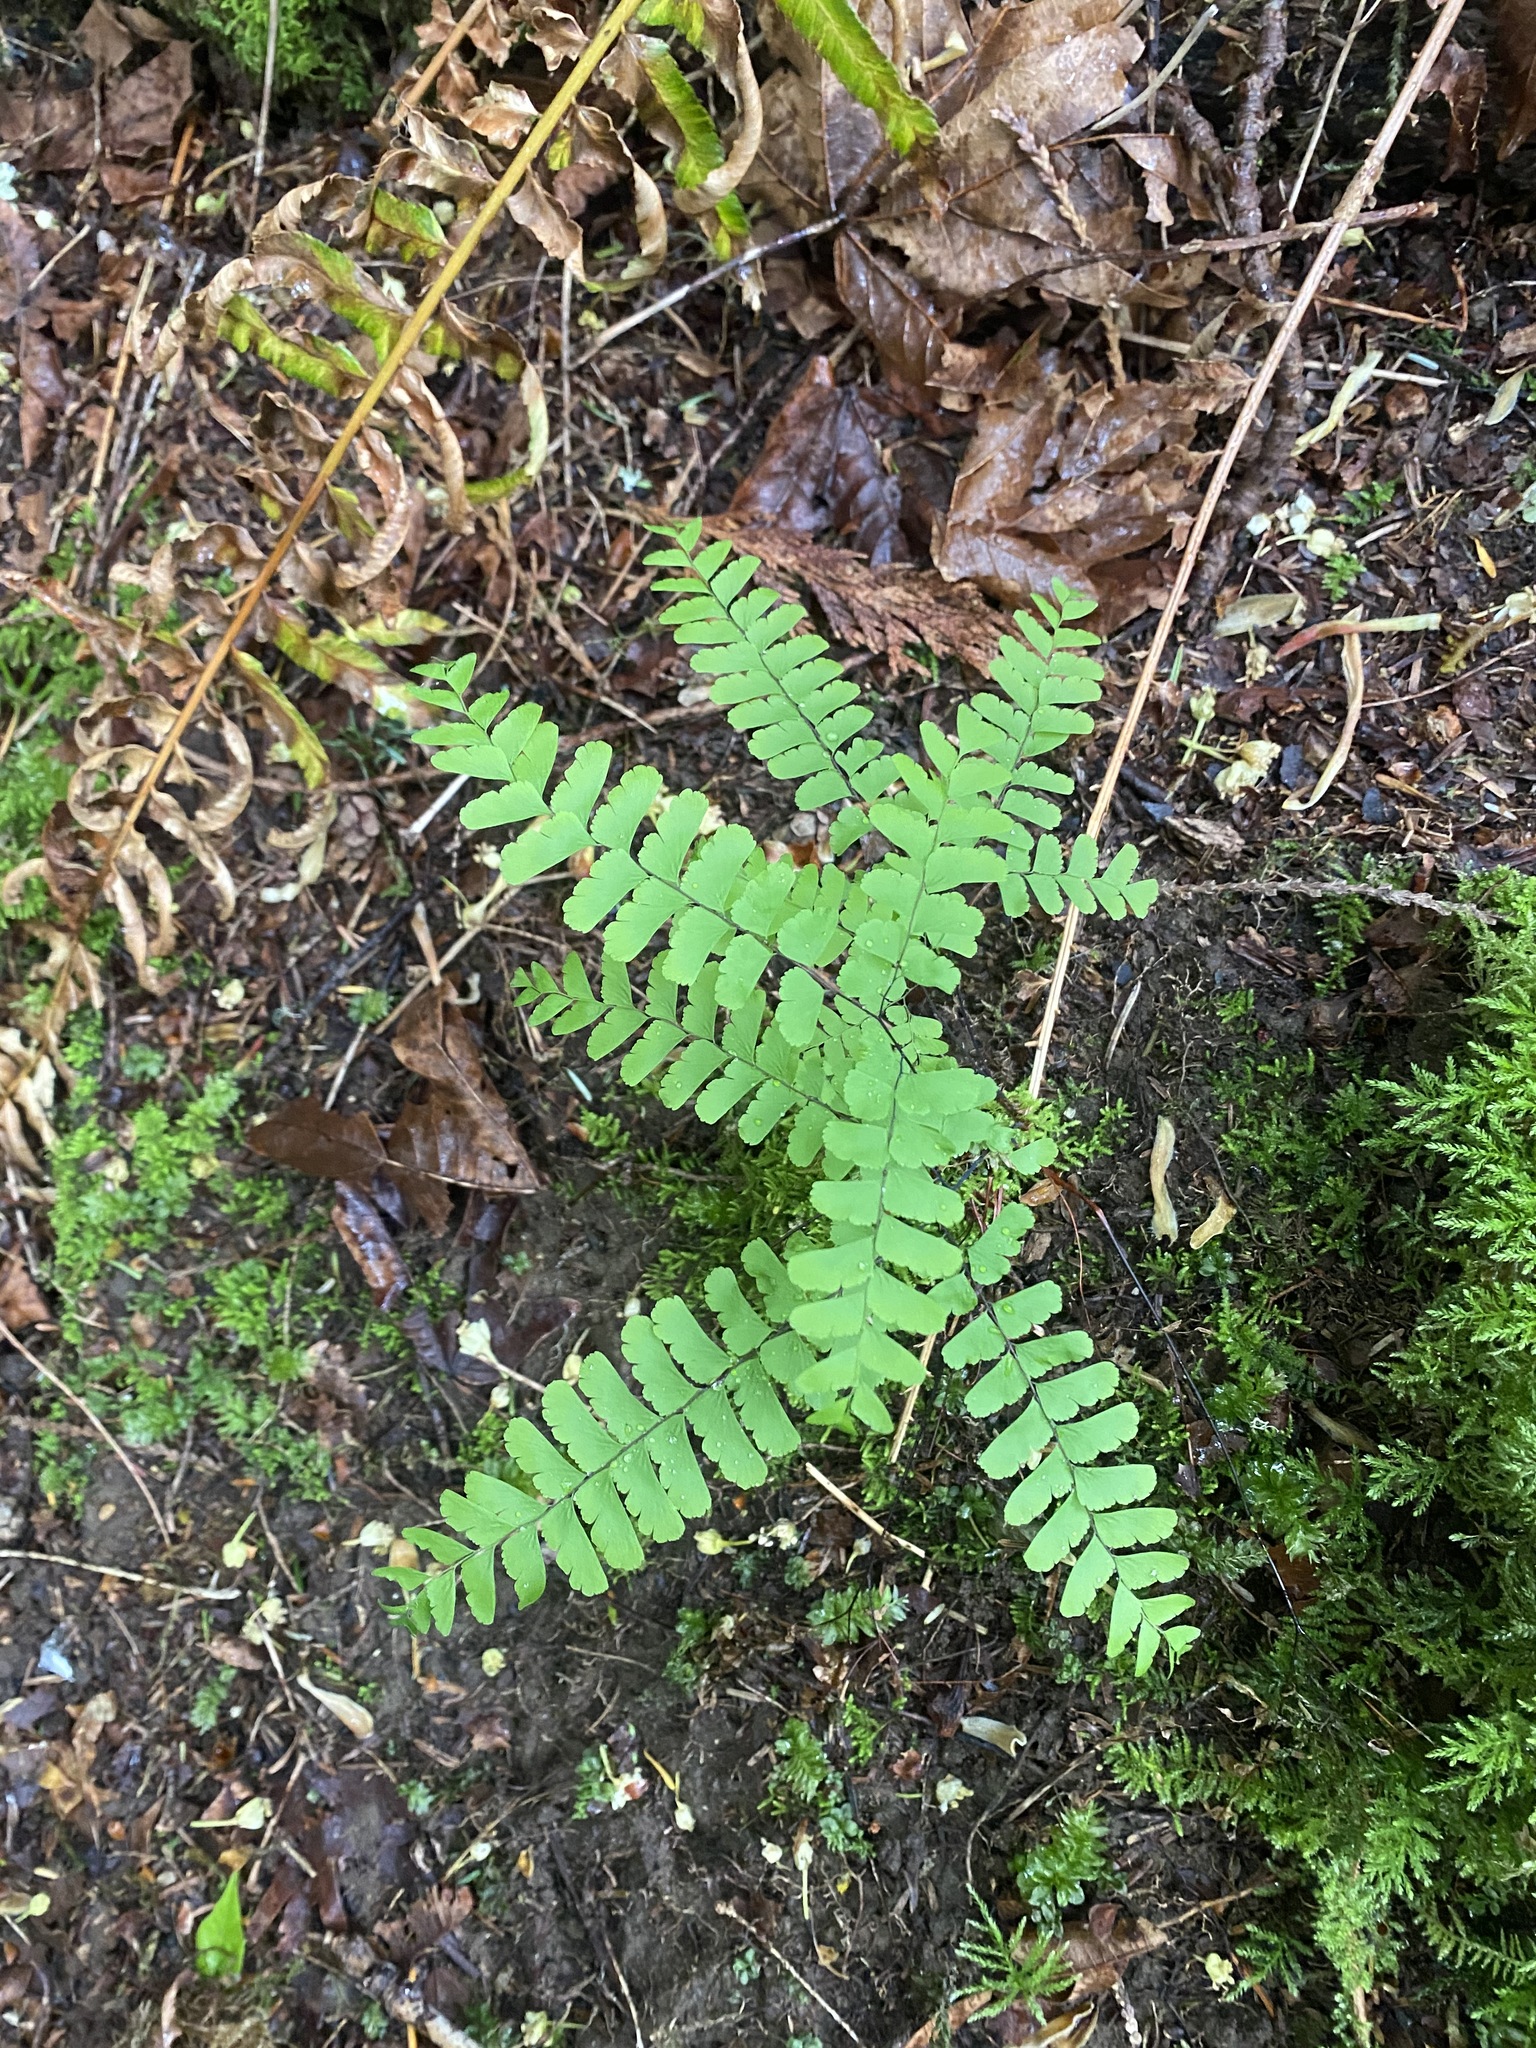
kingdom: Plantae
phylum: Tracheophyta
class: Polypodiopsida
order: Polypodiales
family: Pteridaceae
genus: Adiantum
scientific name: Adiantum aleuticum
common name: Aleutian maidenhair fern
